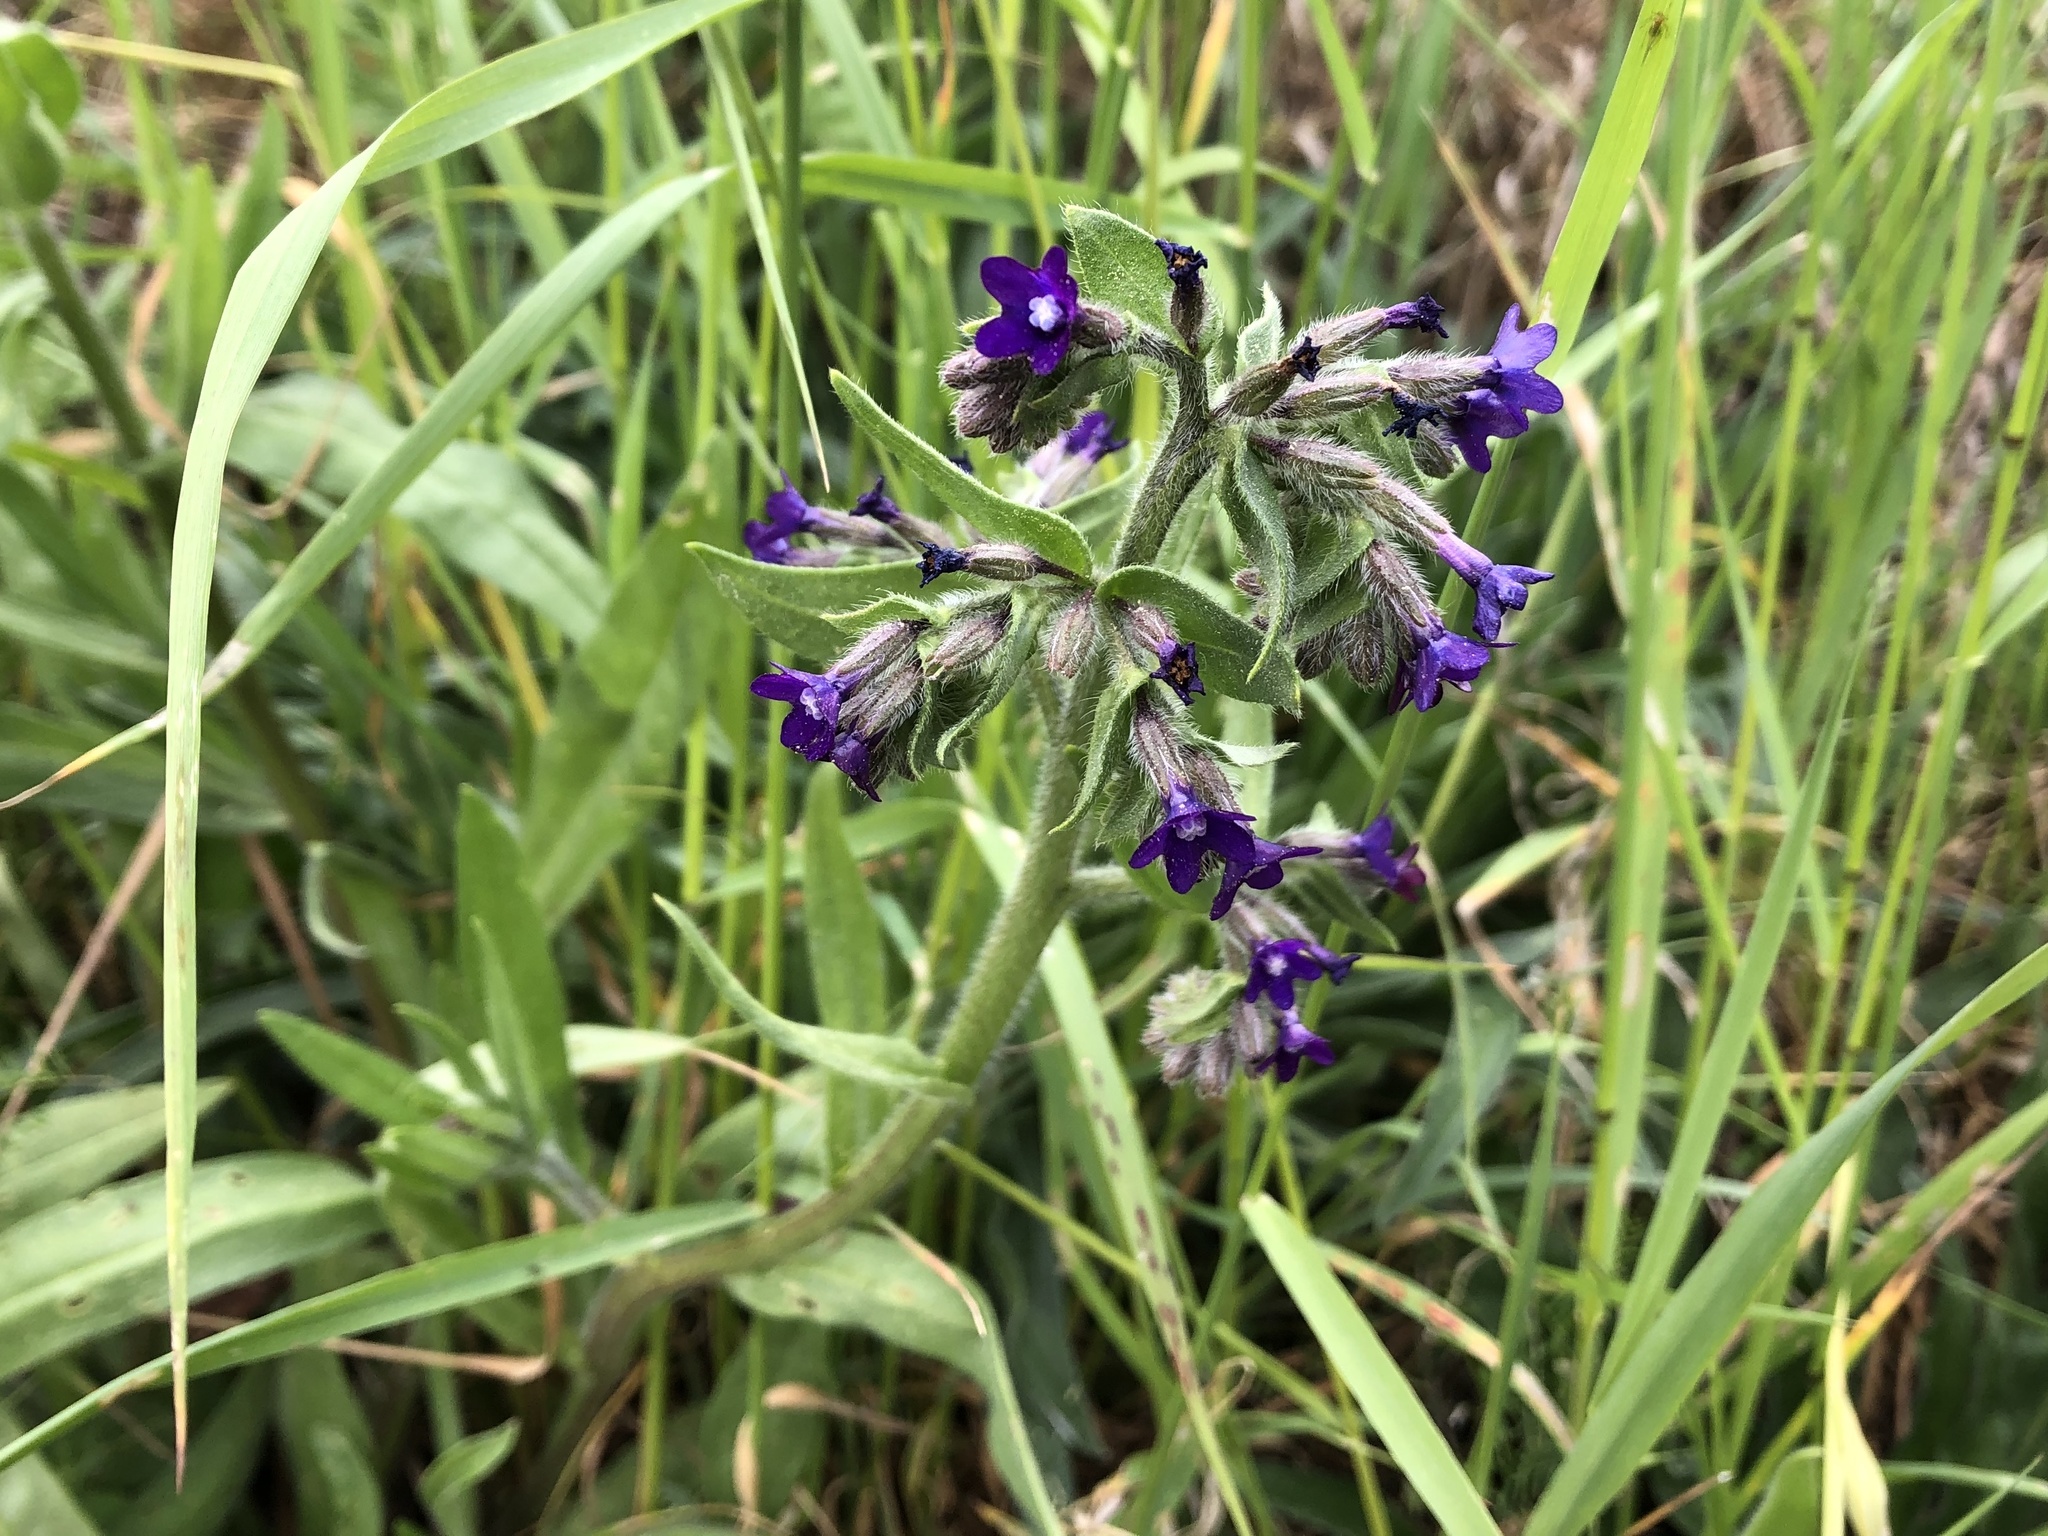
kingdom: Plantae
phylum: Tracheophyta
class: Magnoliopsida
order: Boraginales
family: Boraginaceae
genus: Anchusa
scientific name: Anchusa officinalis
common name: Alkanet
